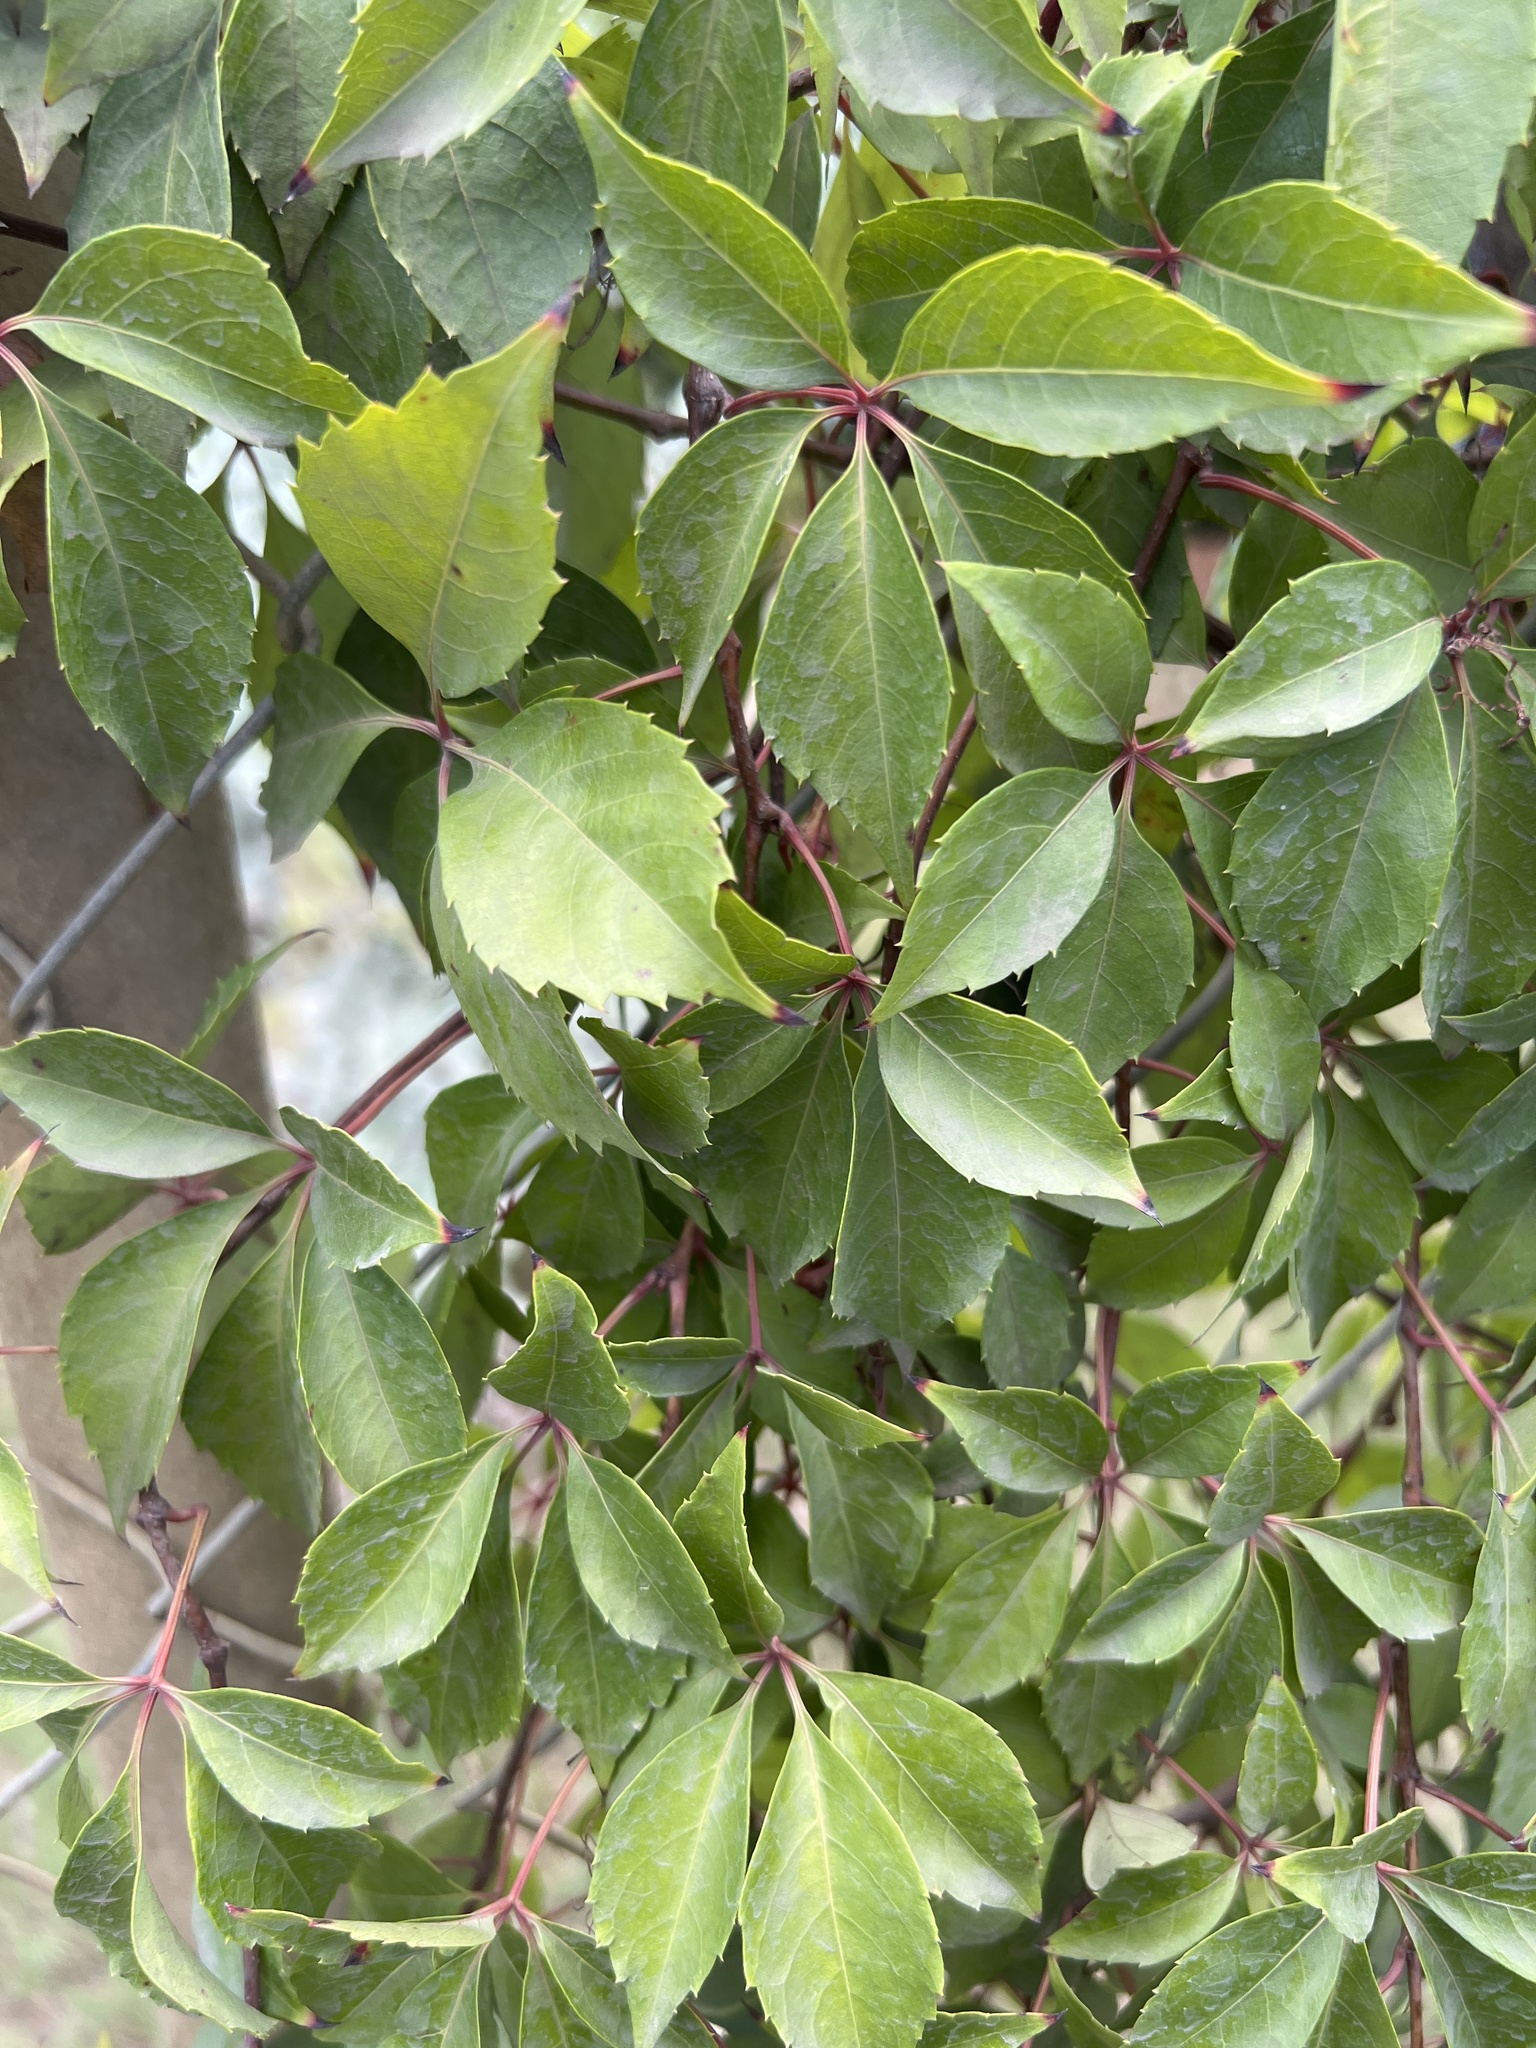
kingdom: Plantae
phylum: Tracheophyta
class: Magnoliopsida
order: Vitales
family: Vitaceae
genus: Parthenocissus
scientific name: Parthenocissus quinquefolia
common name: Virginia-creeper
